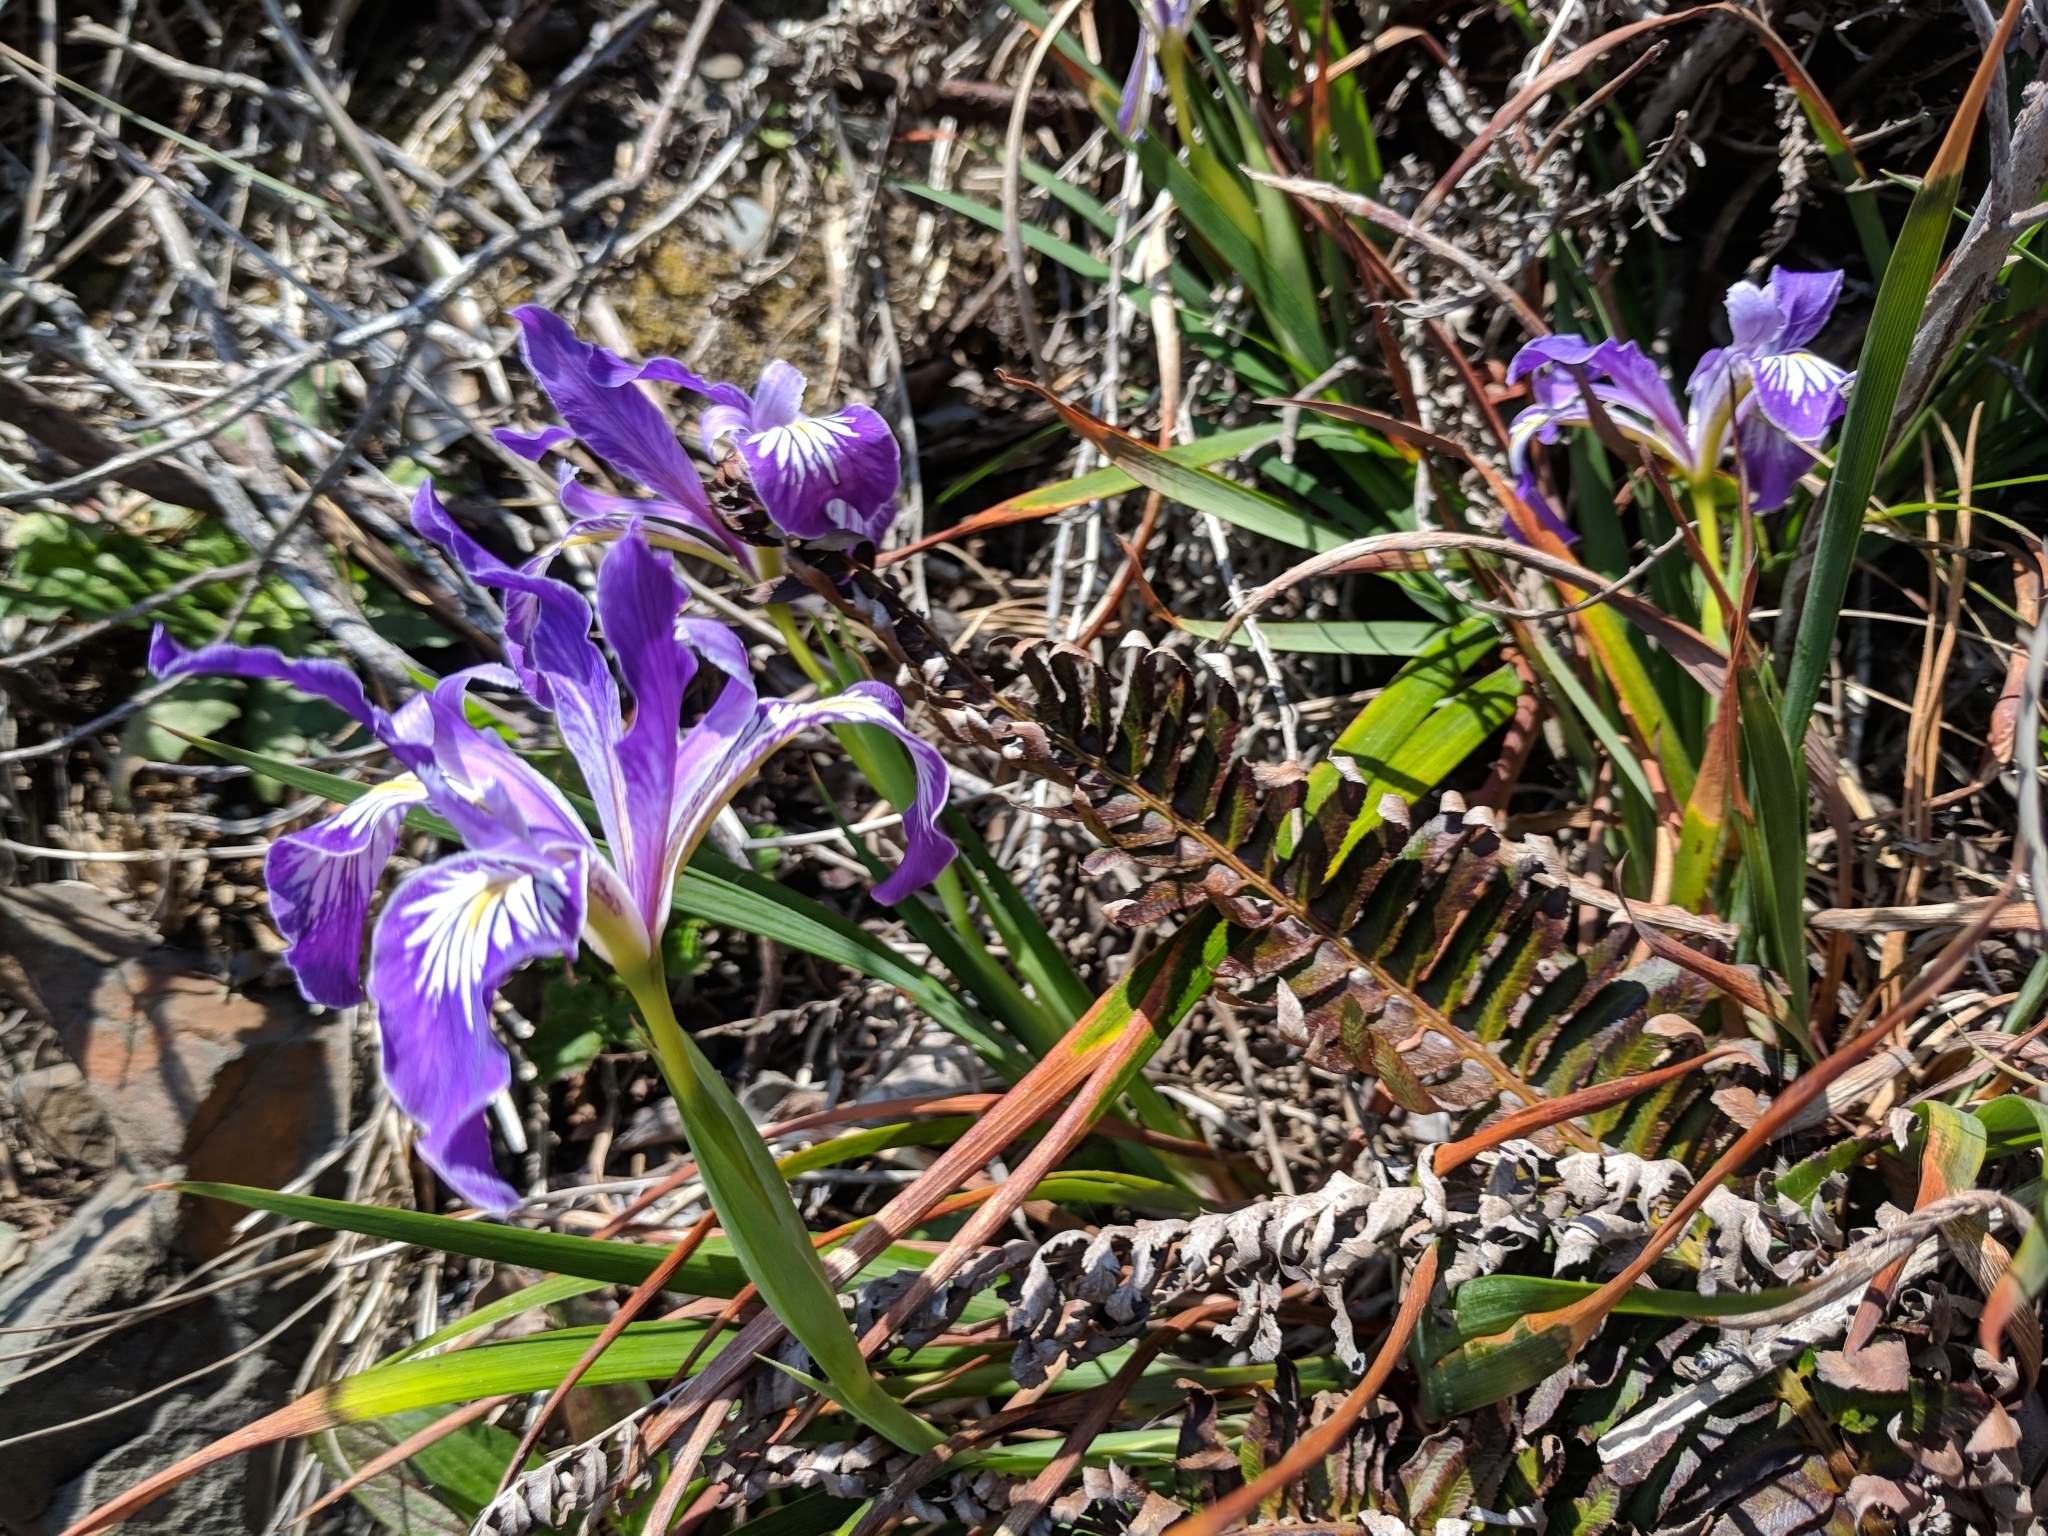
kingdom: Plantae
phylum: Tracheophyta
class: Liliopsida
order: Asparagales
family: Iridaceae
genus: Iris
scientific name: Iris douglasiana
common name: Marin iris
